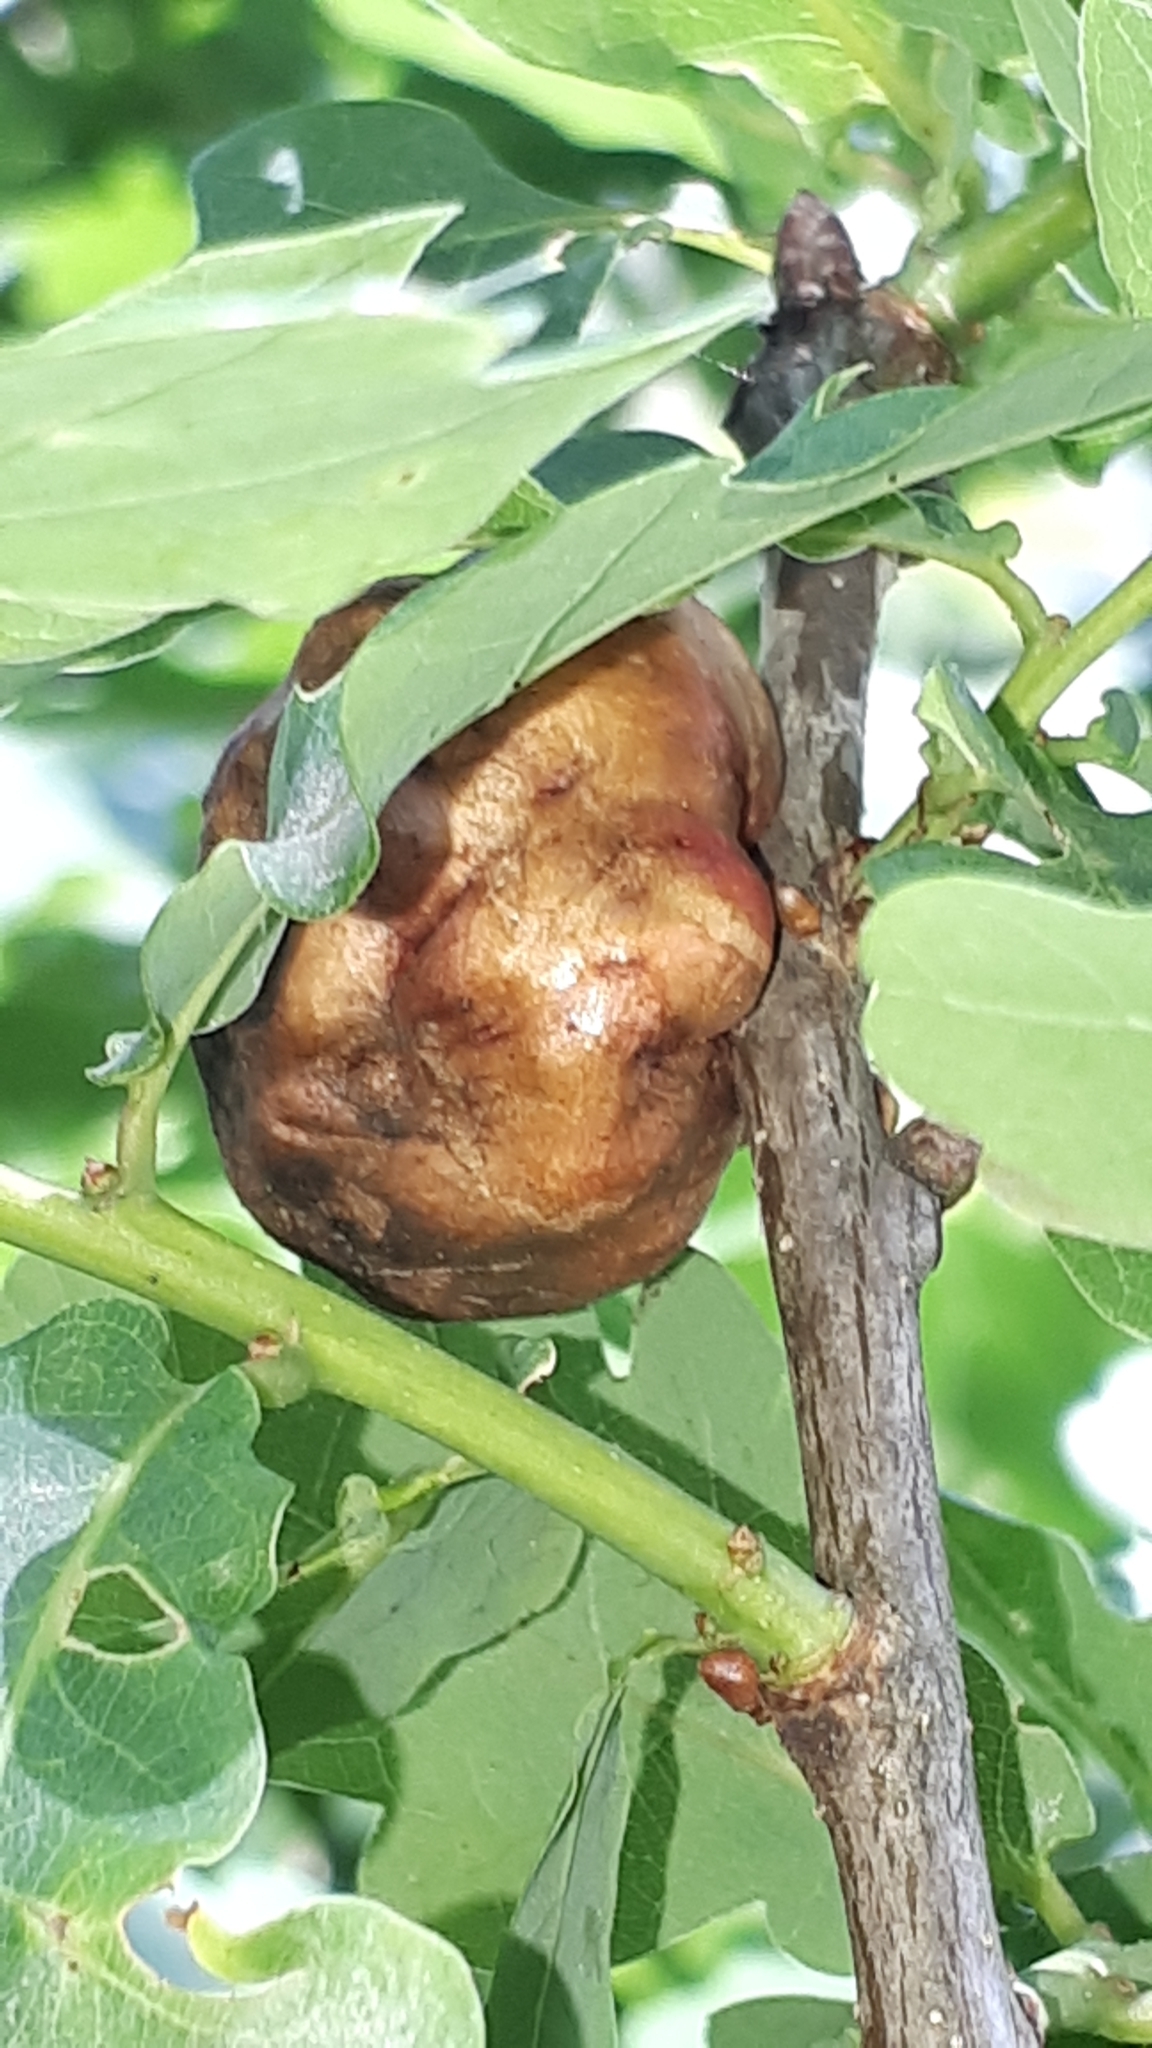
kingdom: Animalia
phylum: Arthropoda
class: Insecta
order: Hymenoptera
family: Cynipidae
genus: Biorhiza
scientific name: Biorhiza pallida
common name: Oak apple
